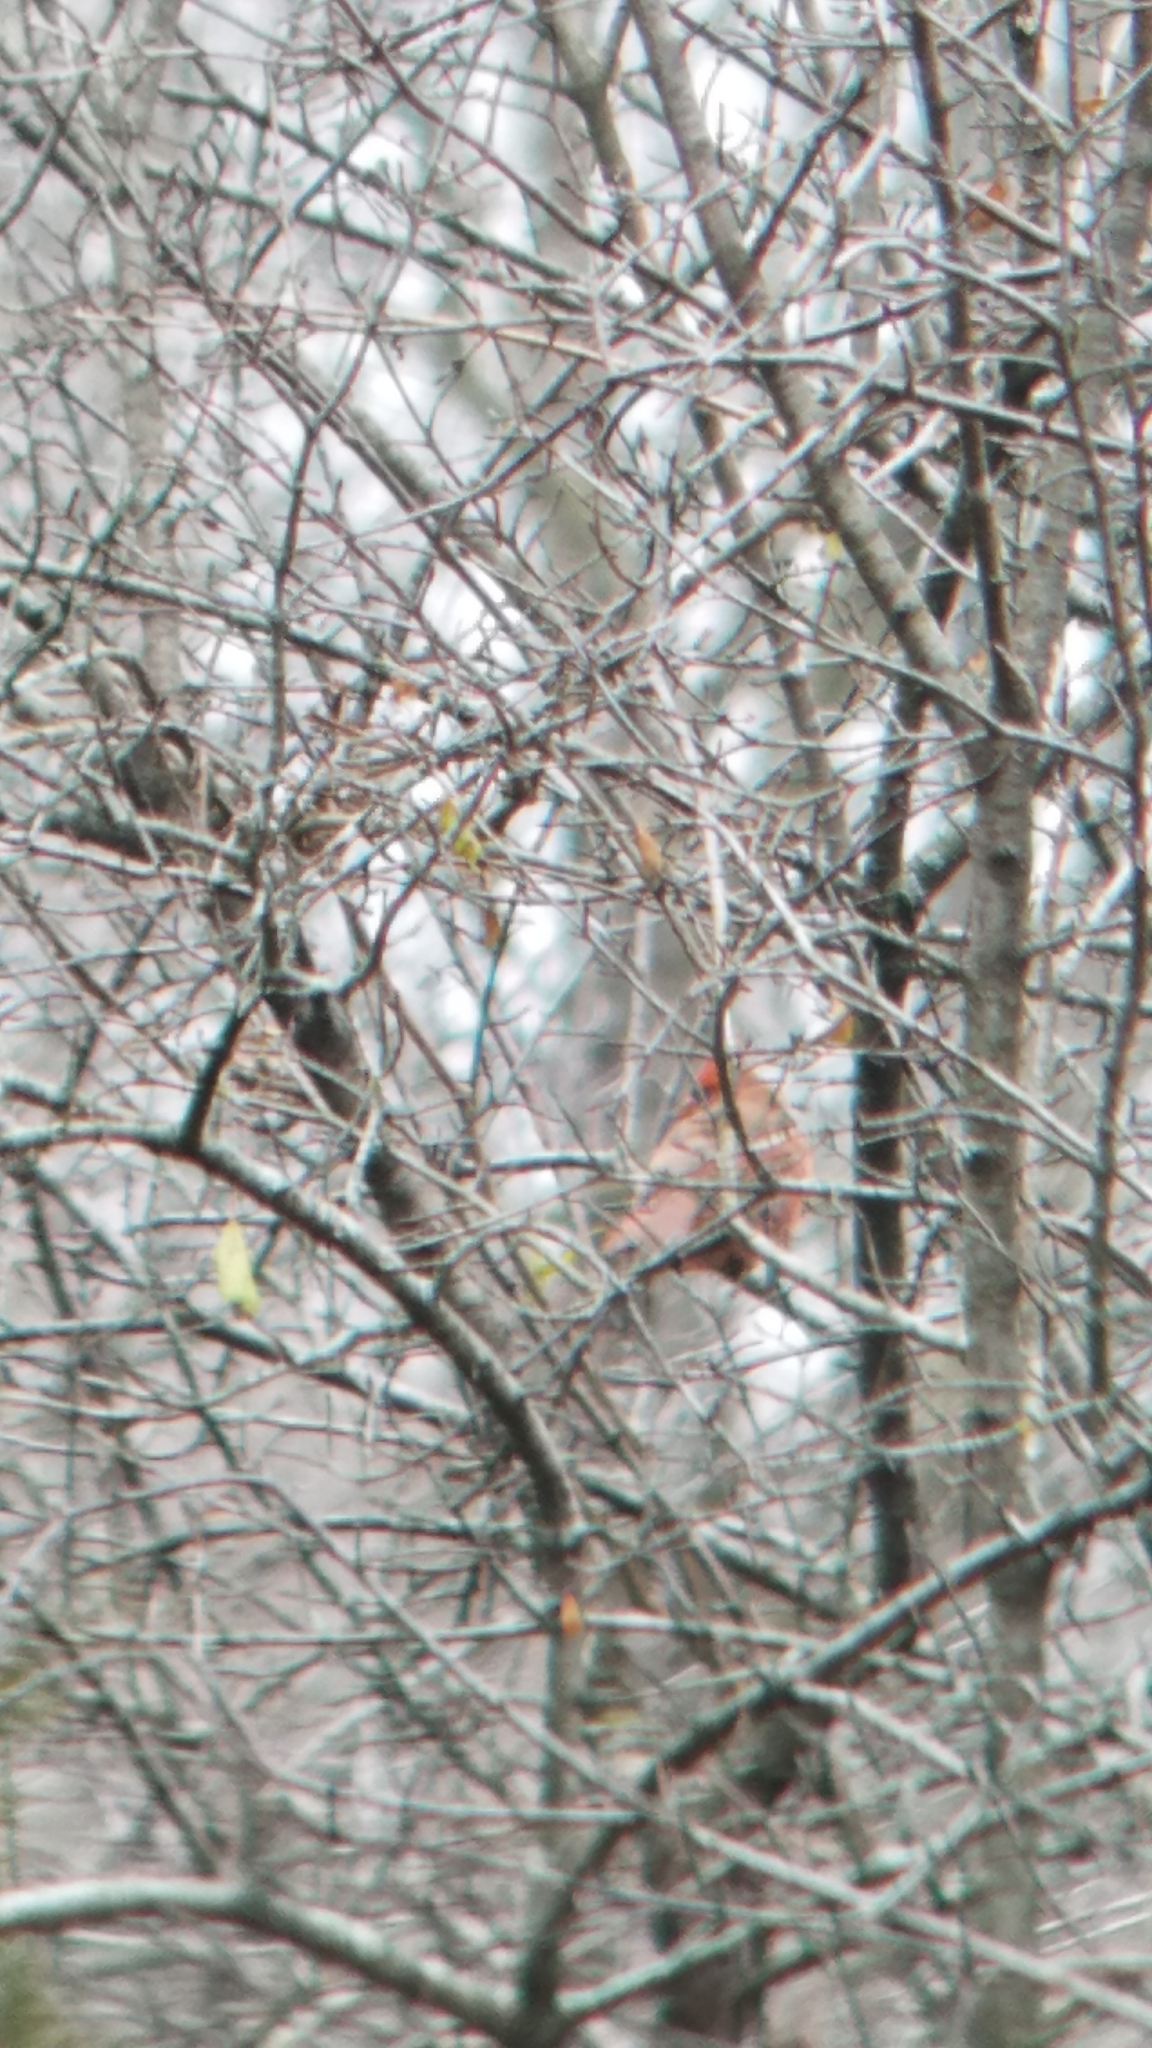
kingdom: Animalia
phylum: Chordata
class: Aves
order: Passeriformes
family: Cardinalidae
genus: Cardinalis
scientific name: Cardinalis cardinalis
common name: Northern cardinal
